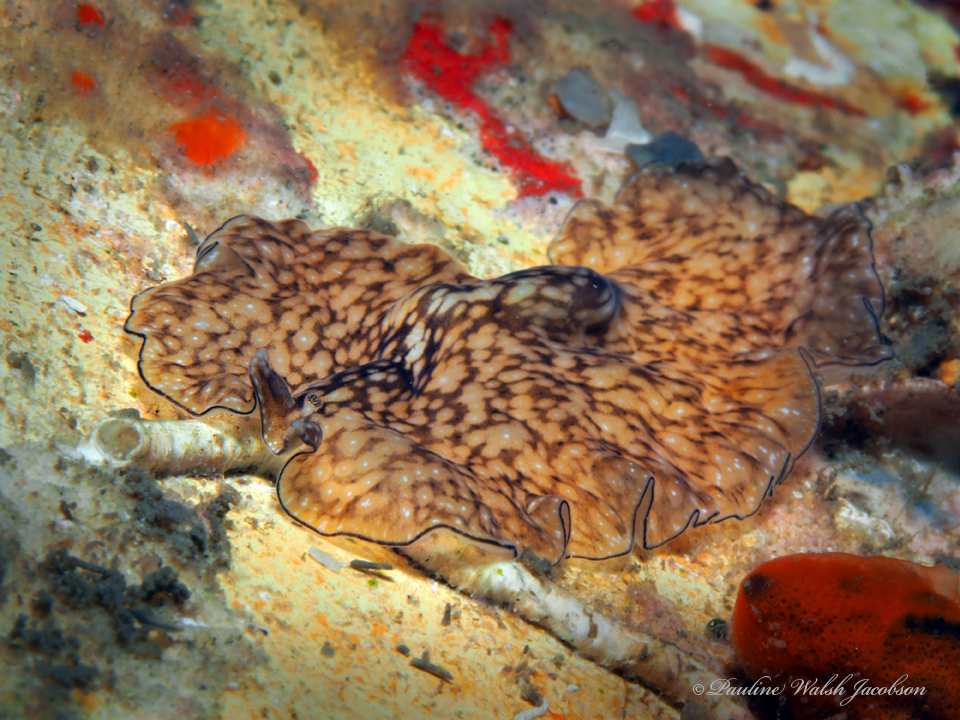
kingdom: Animalia
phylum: Platyhelminthes
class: Turbellaria
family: Pseudocerotidae
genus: Phrikoceros
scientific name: Phrikoceros mopsus
